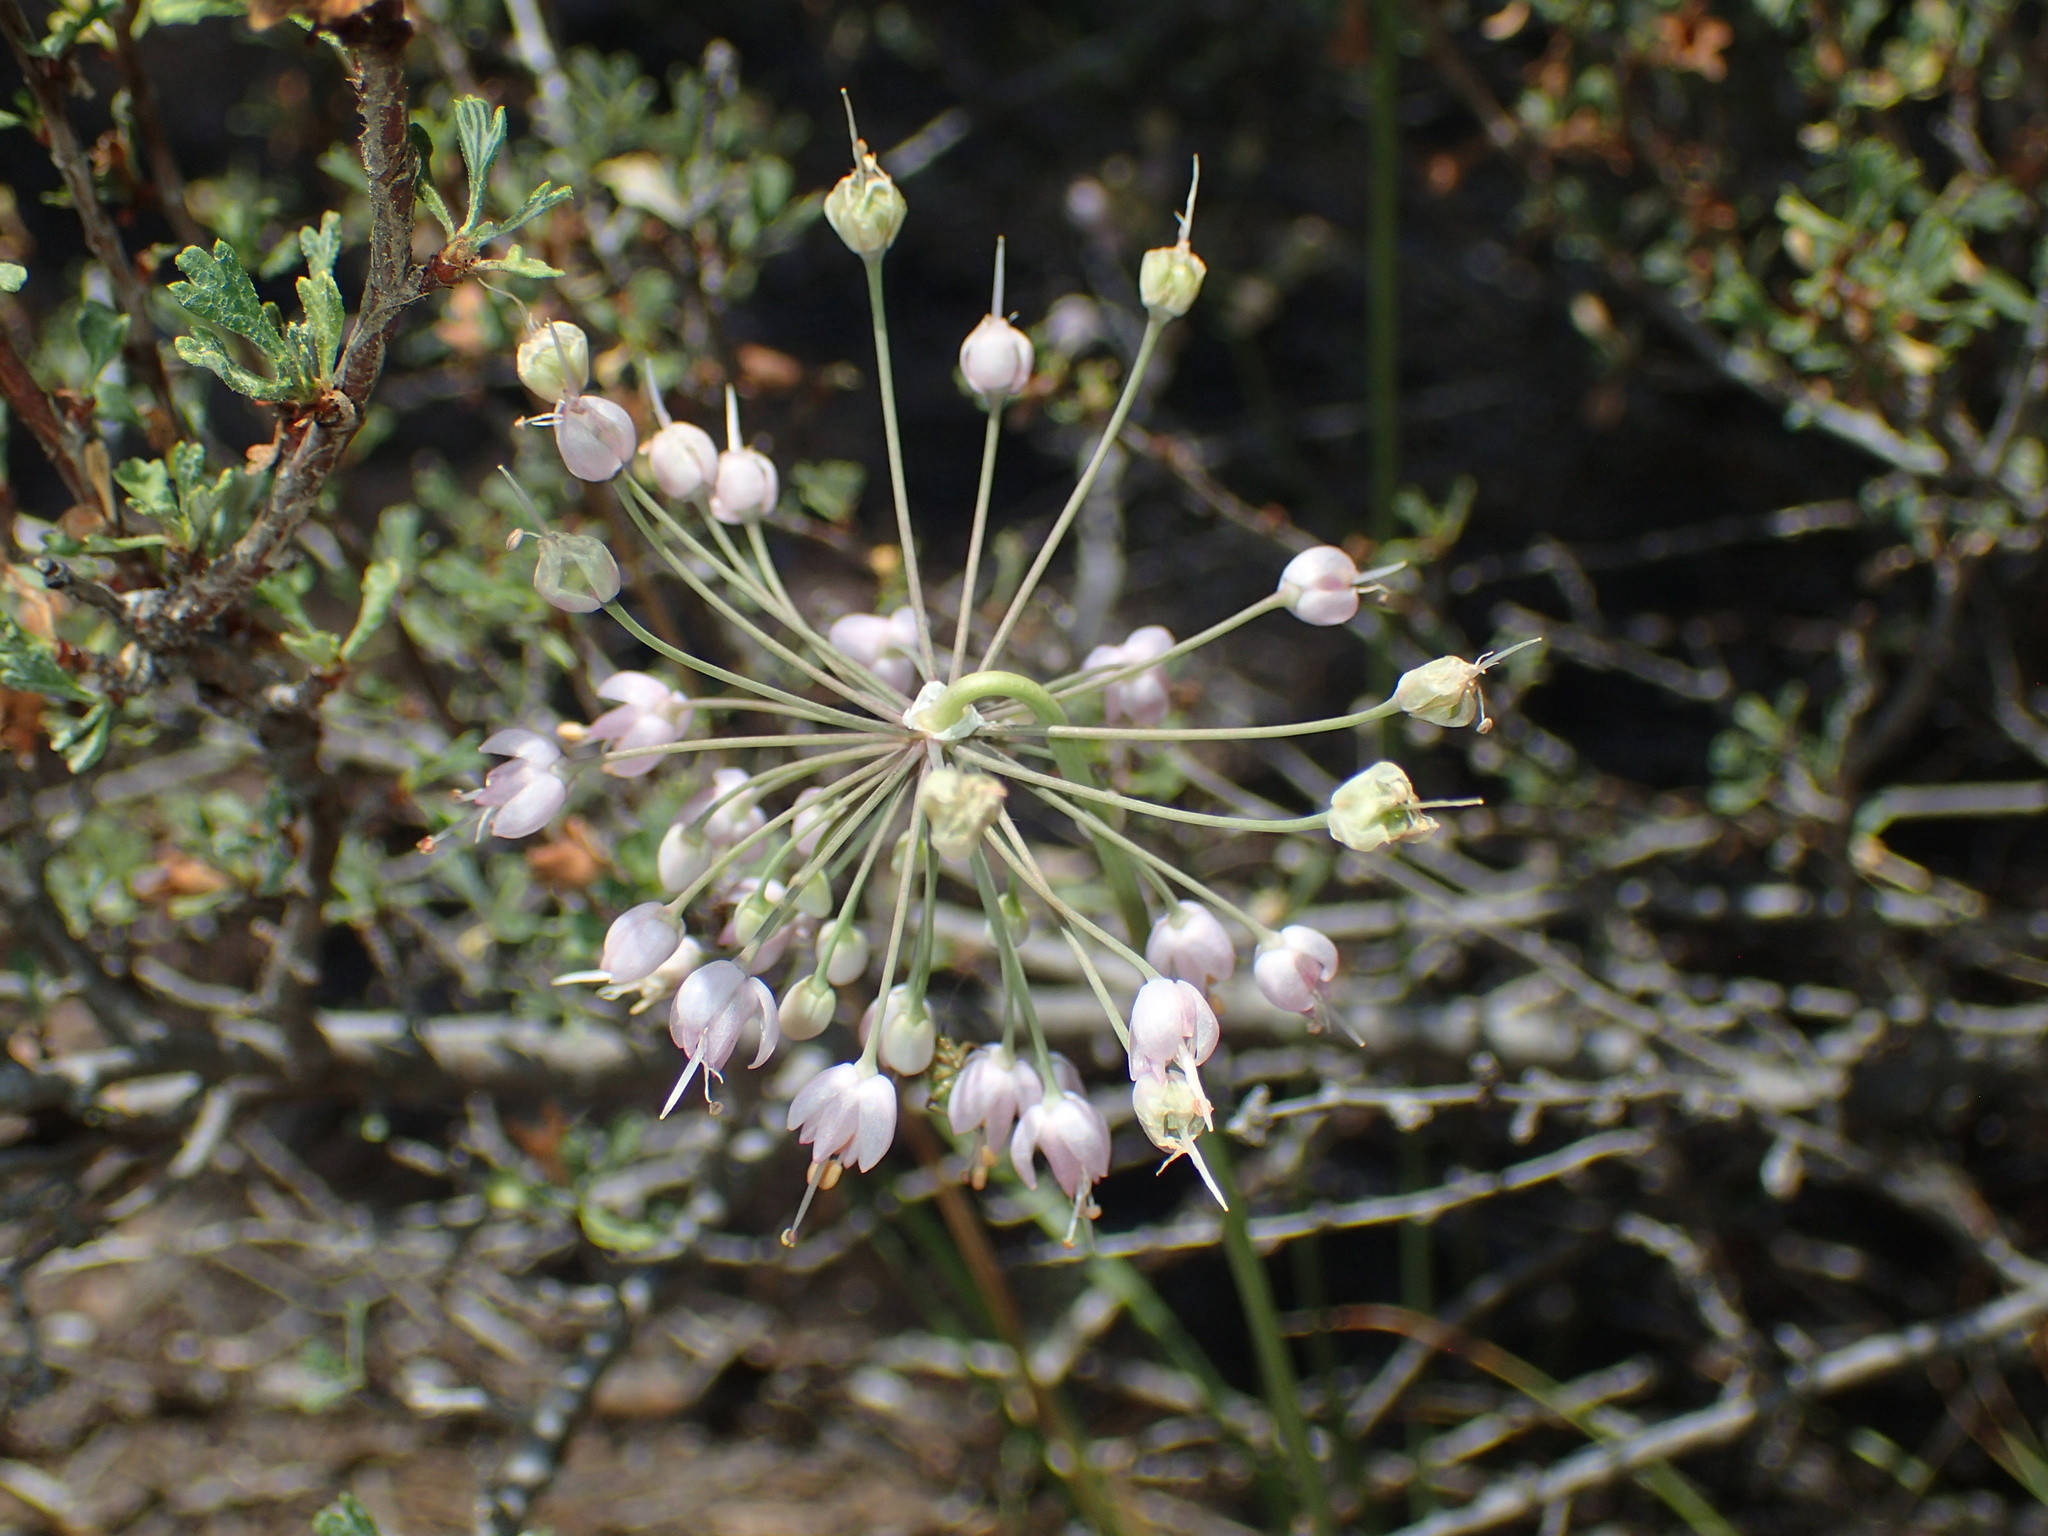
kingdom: Plantae
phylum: Tracheophyta
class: Liliopsida
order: Asparagales
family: Amaryllidaceae
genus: Allium
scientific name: Allium cernuum
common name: Nodding onion
